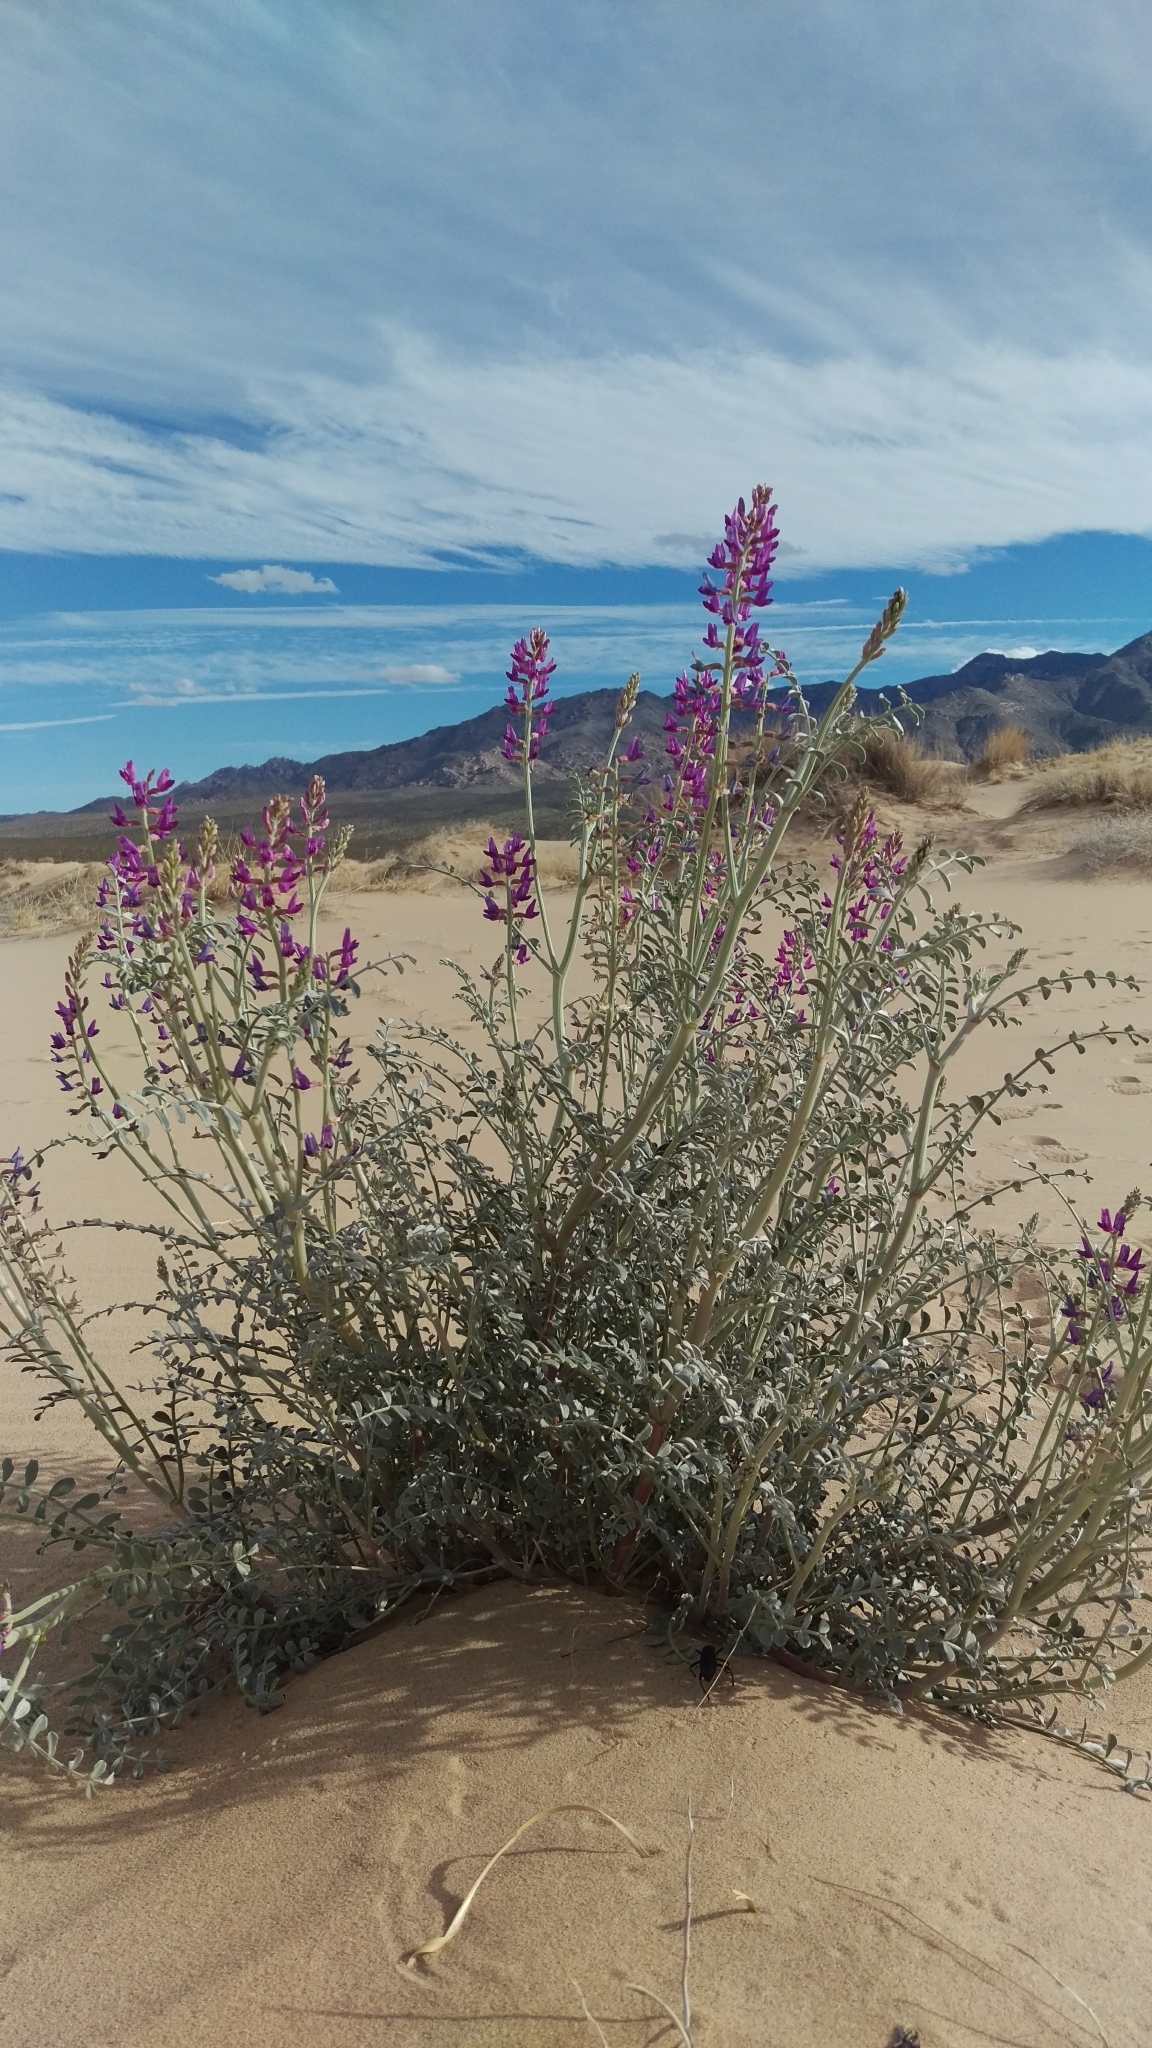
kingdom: Plantae
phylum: Tracheophyta
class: Magnoliopsida
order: Fabales
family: Fabaceae
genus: Astragalus
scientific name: Astragalus lentiginosus
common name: Freckled milkvetch
